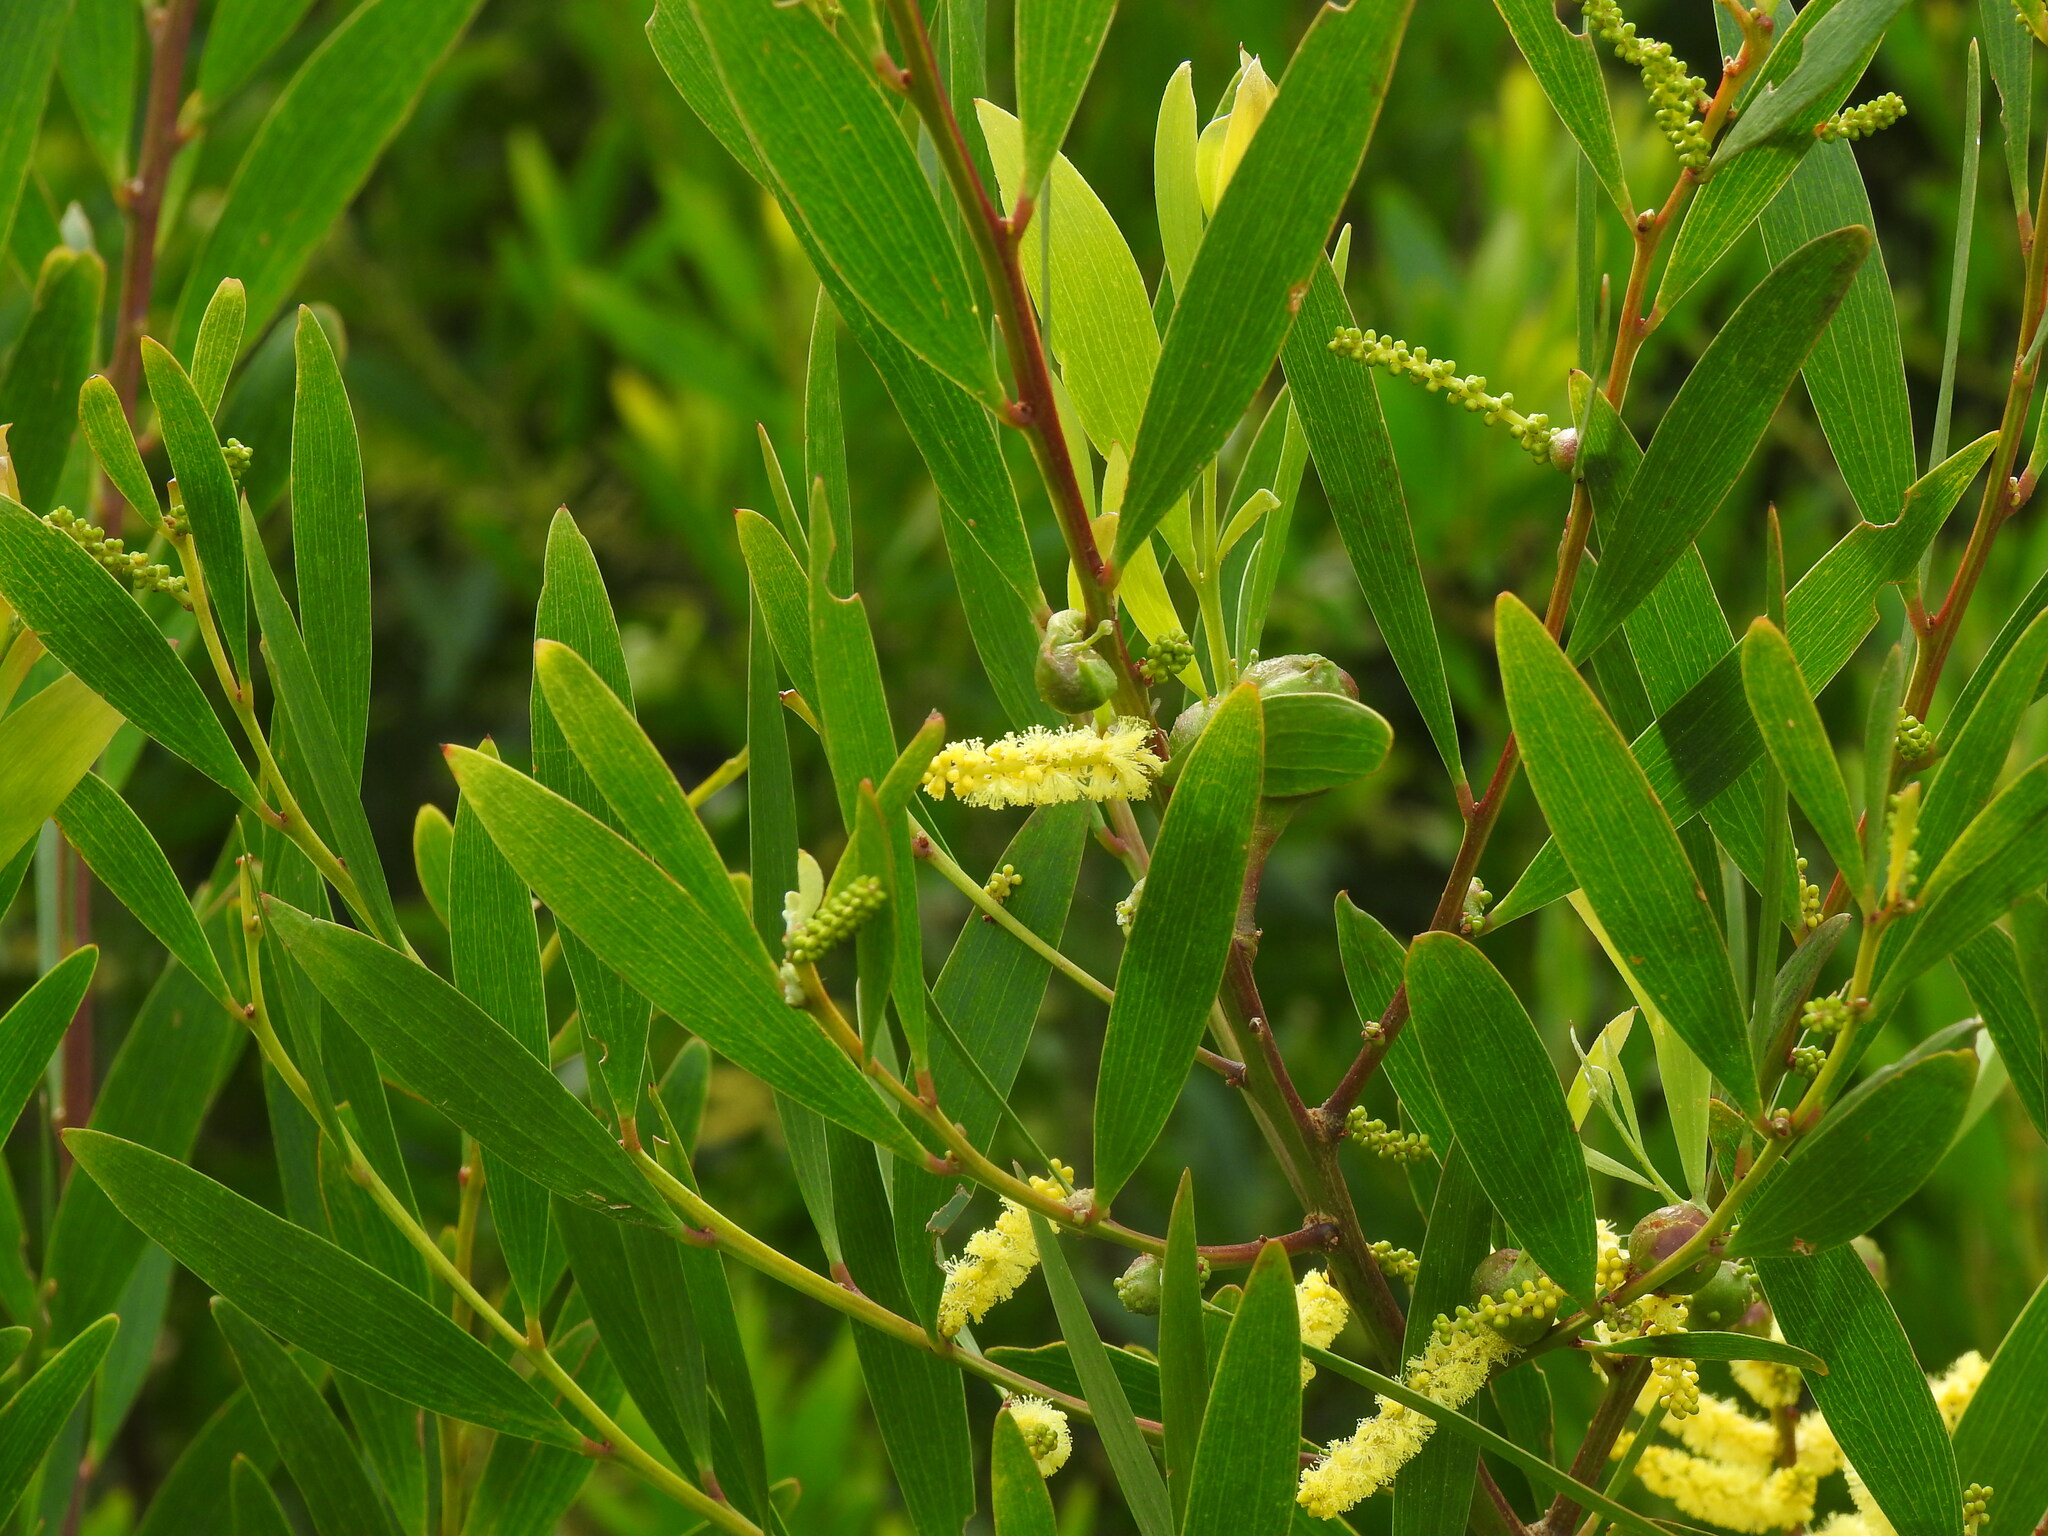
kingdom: Plantae
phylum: Tracheophyta
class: Magnoliopsida
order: Fabales
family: Fabaceae
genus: Acacia
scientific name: Acacia longifolia
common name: Sydney golden wattle
